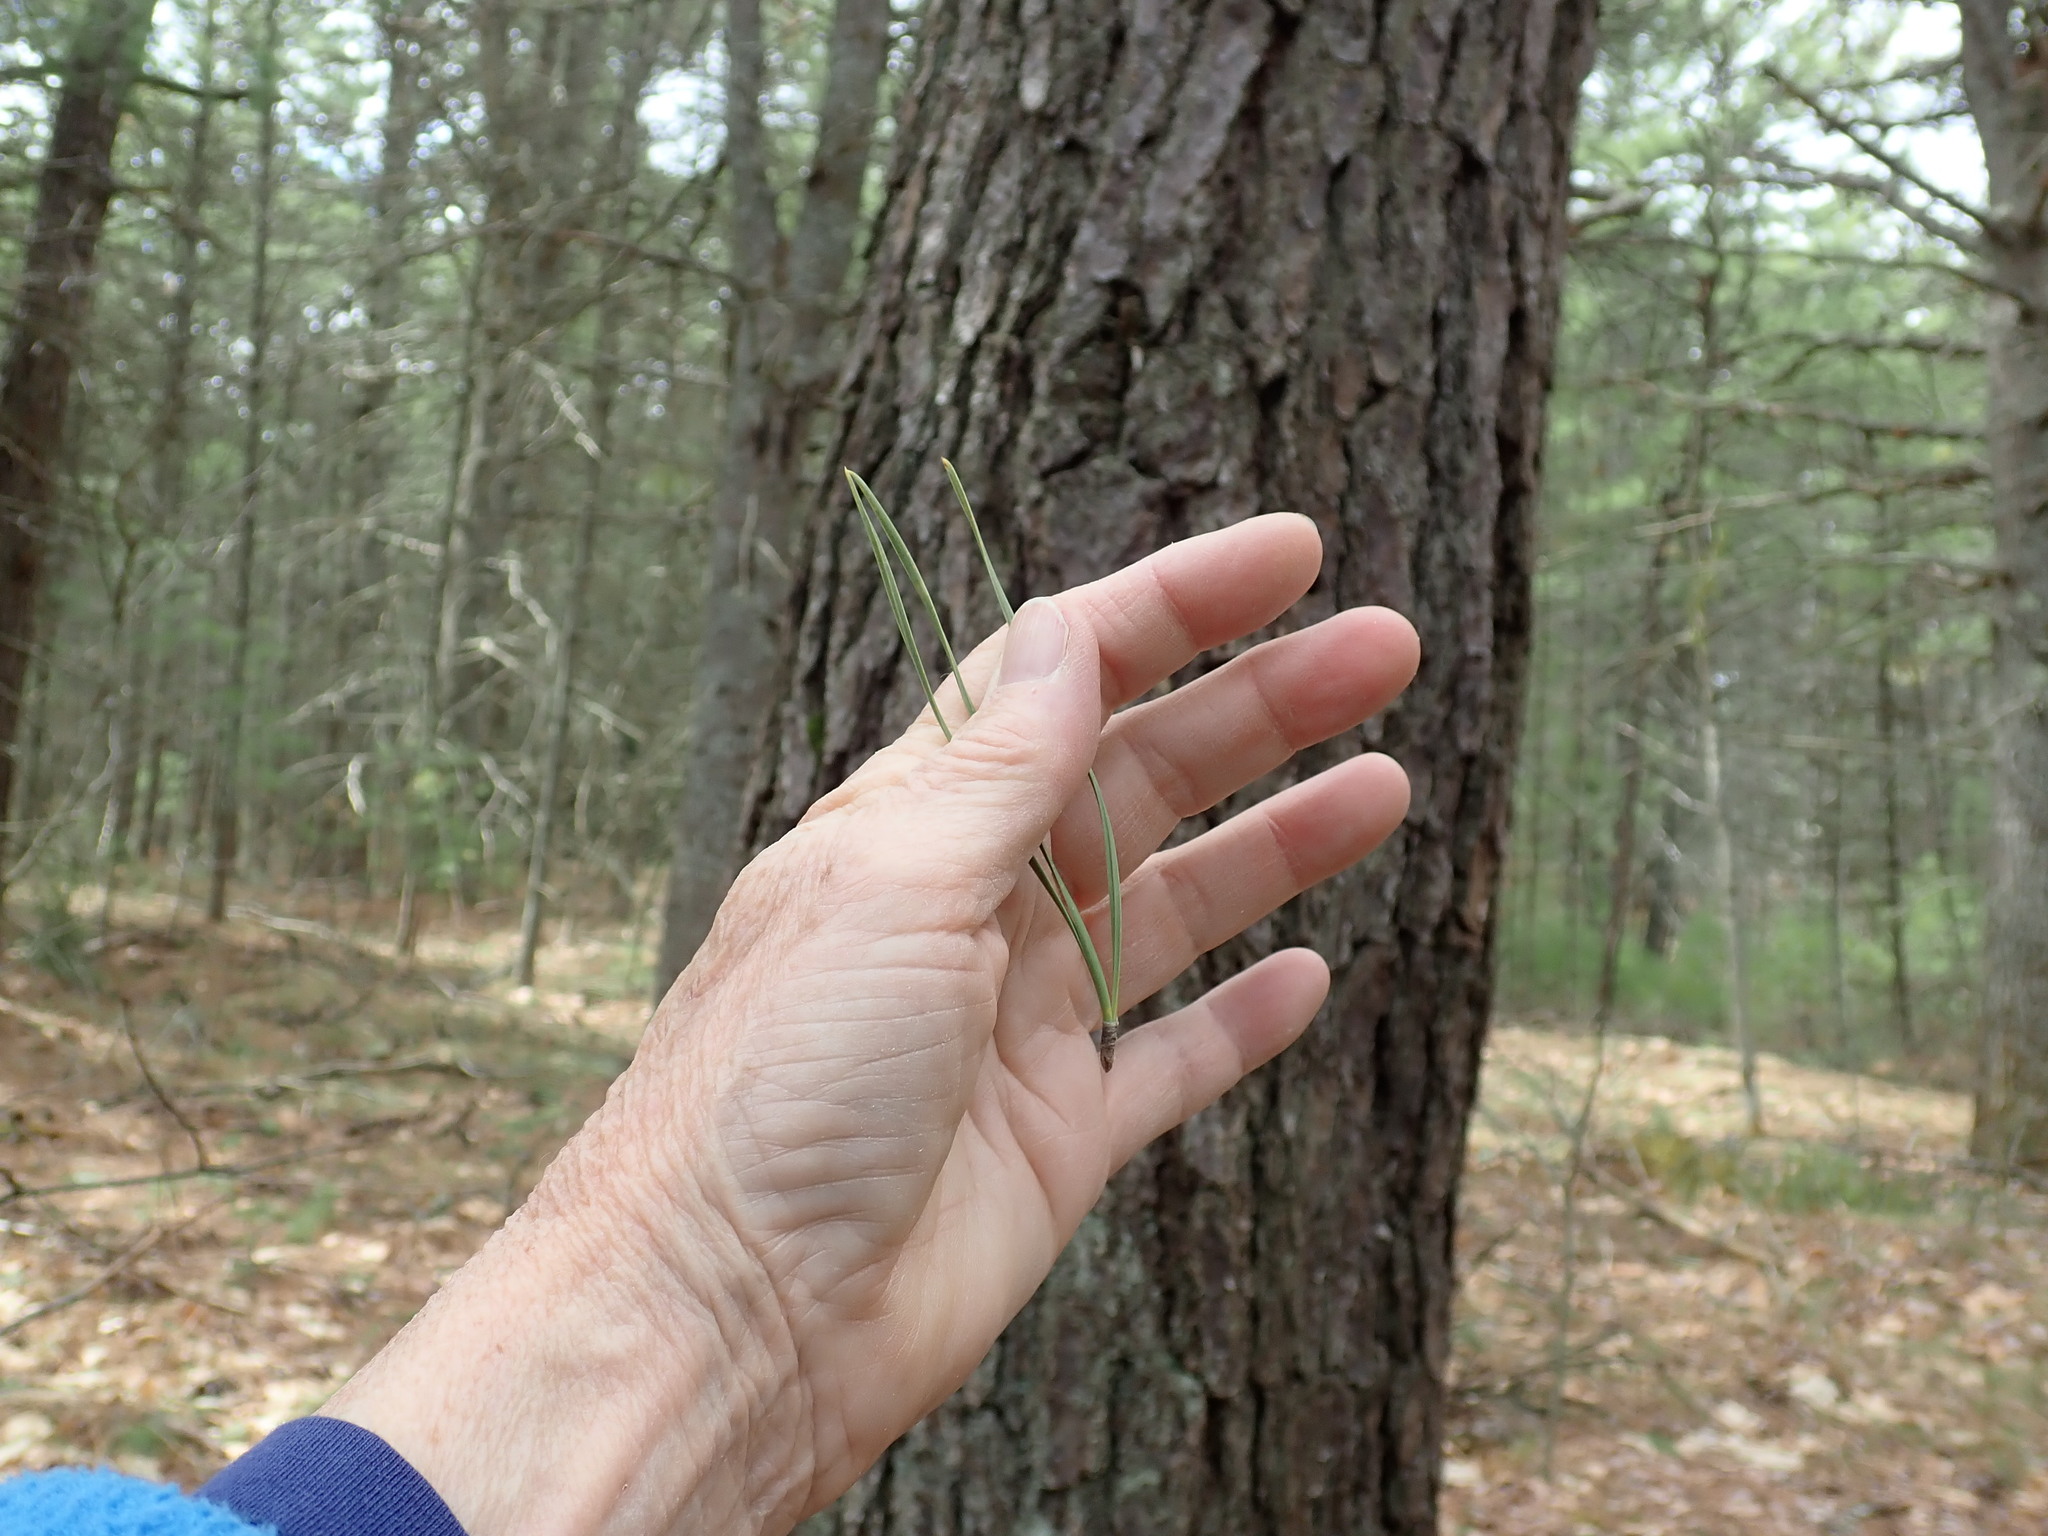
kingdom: Plantae
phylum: Tracheophyta
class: Pinopsida
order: Pinales
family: Pinaceae
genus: Pinus
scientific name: Pinus rigida
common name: Pitch pine
